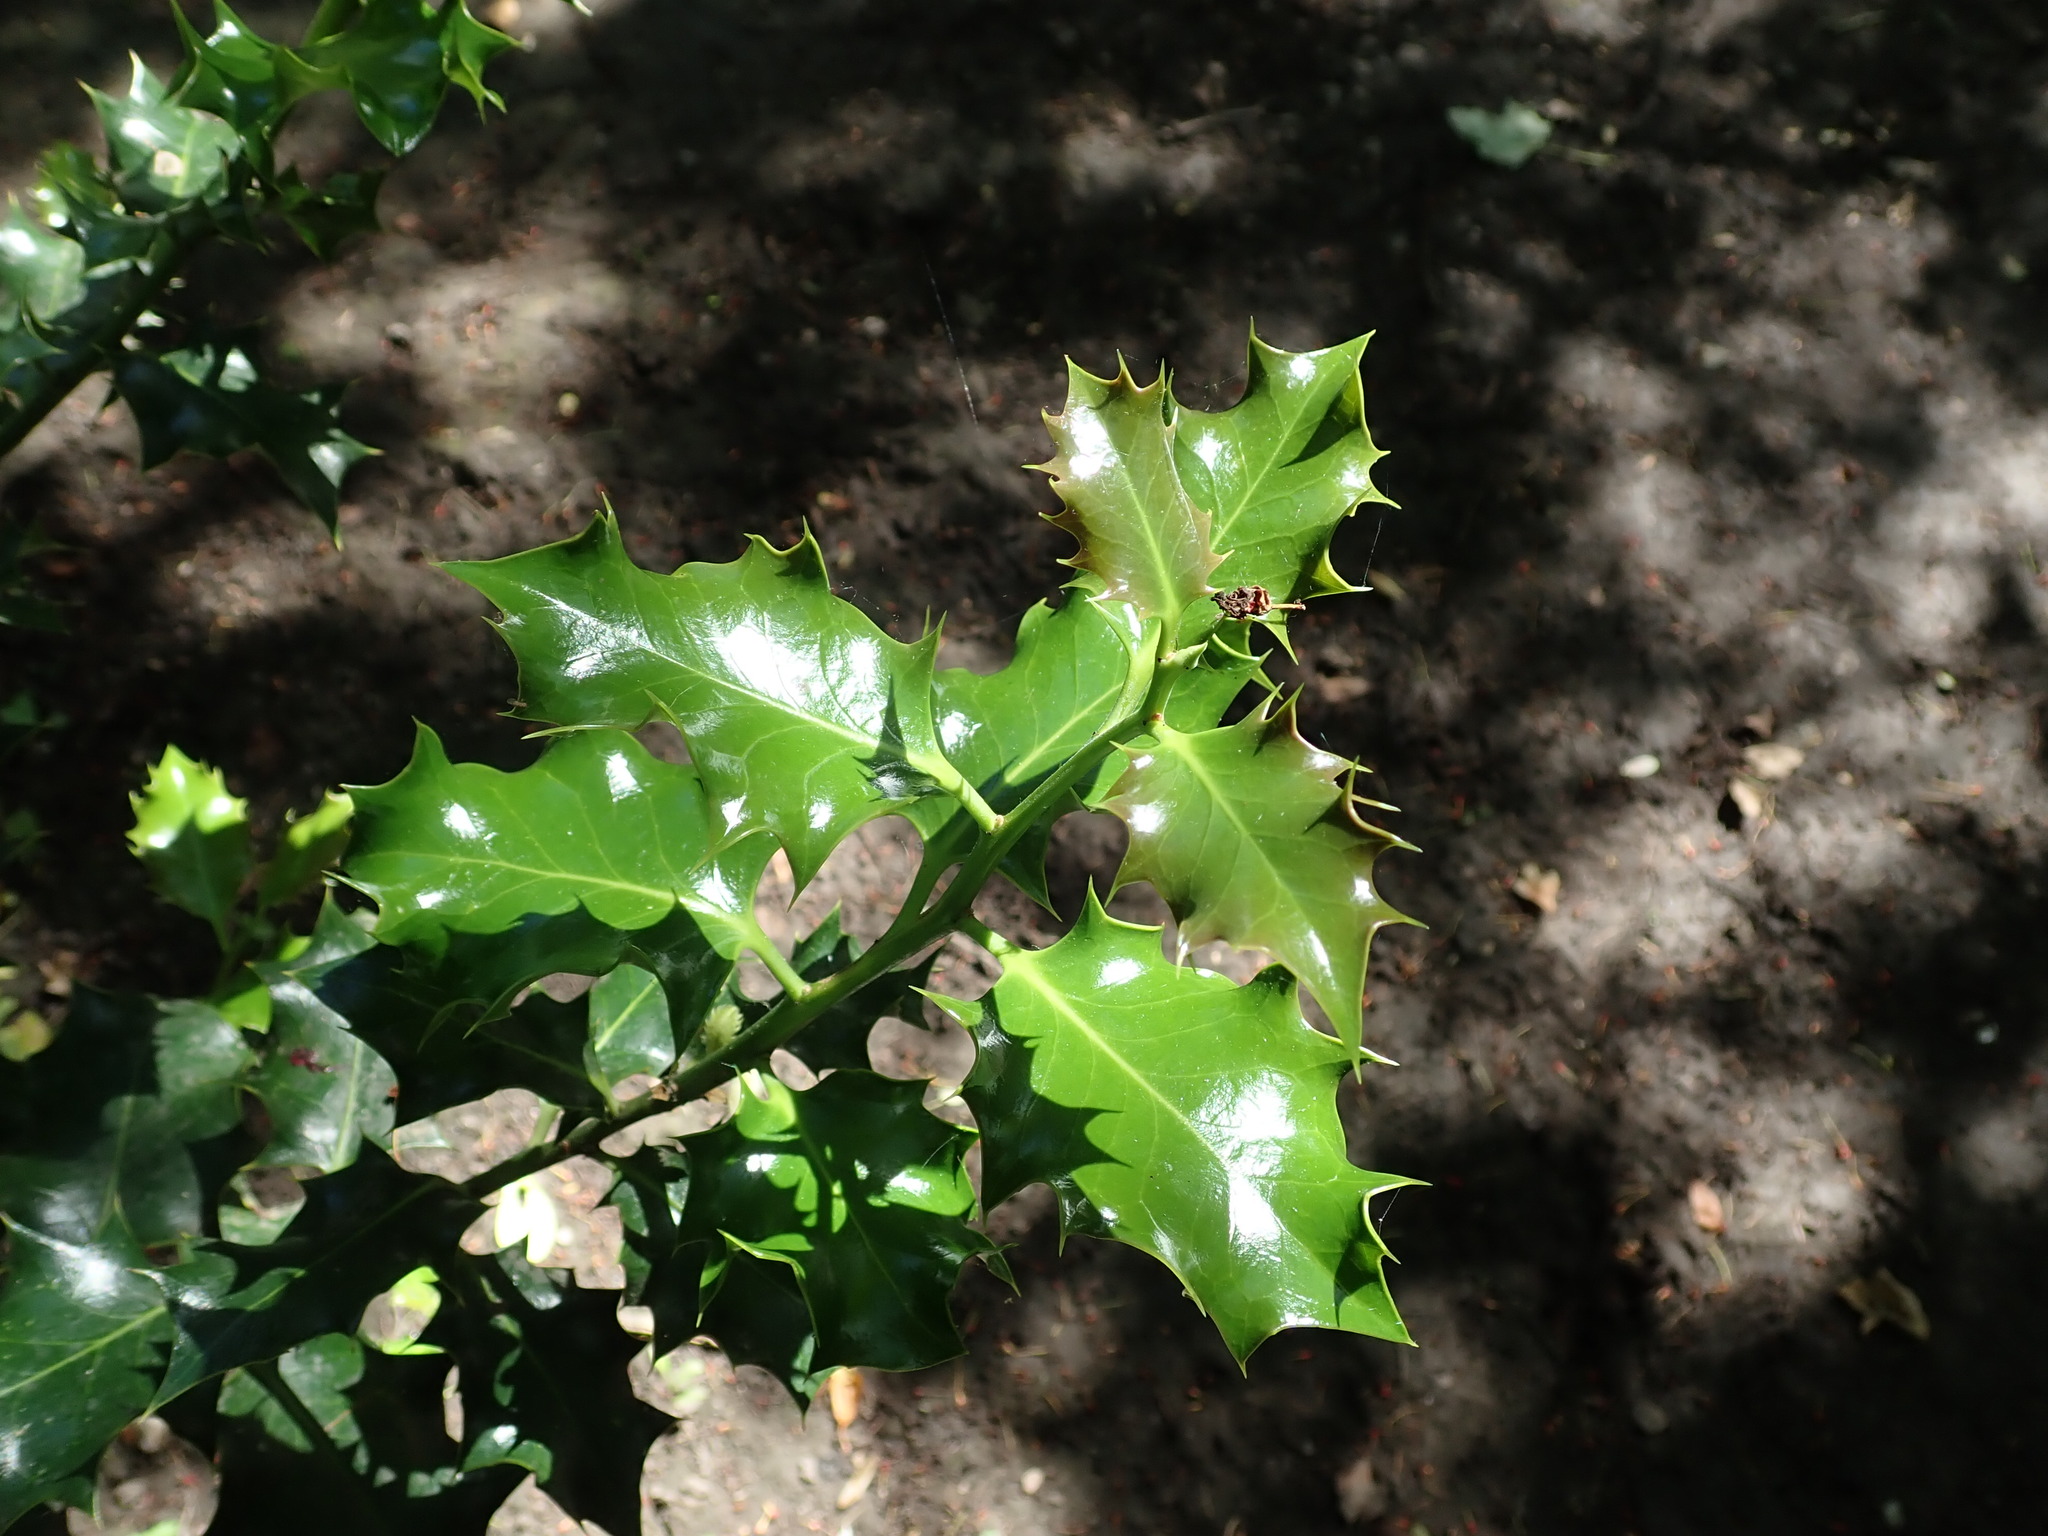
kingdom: Plantae
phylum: Tracheophyta
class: Magnoliopsida
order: Aquifoliales
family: Aquifoliaceae
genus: Ilex
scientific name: Ilex aquifolium
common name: English holly
